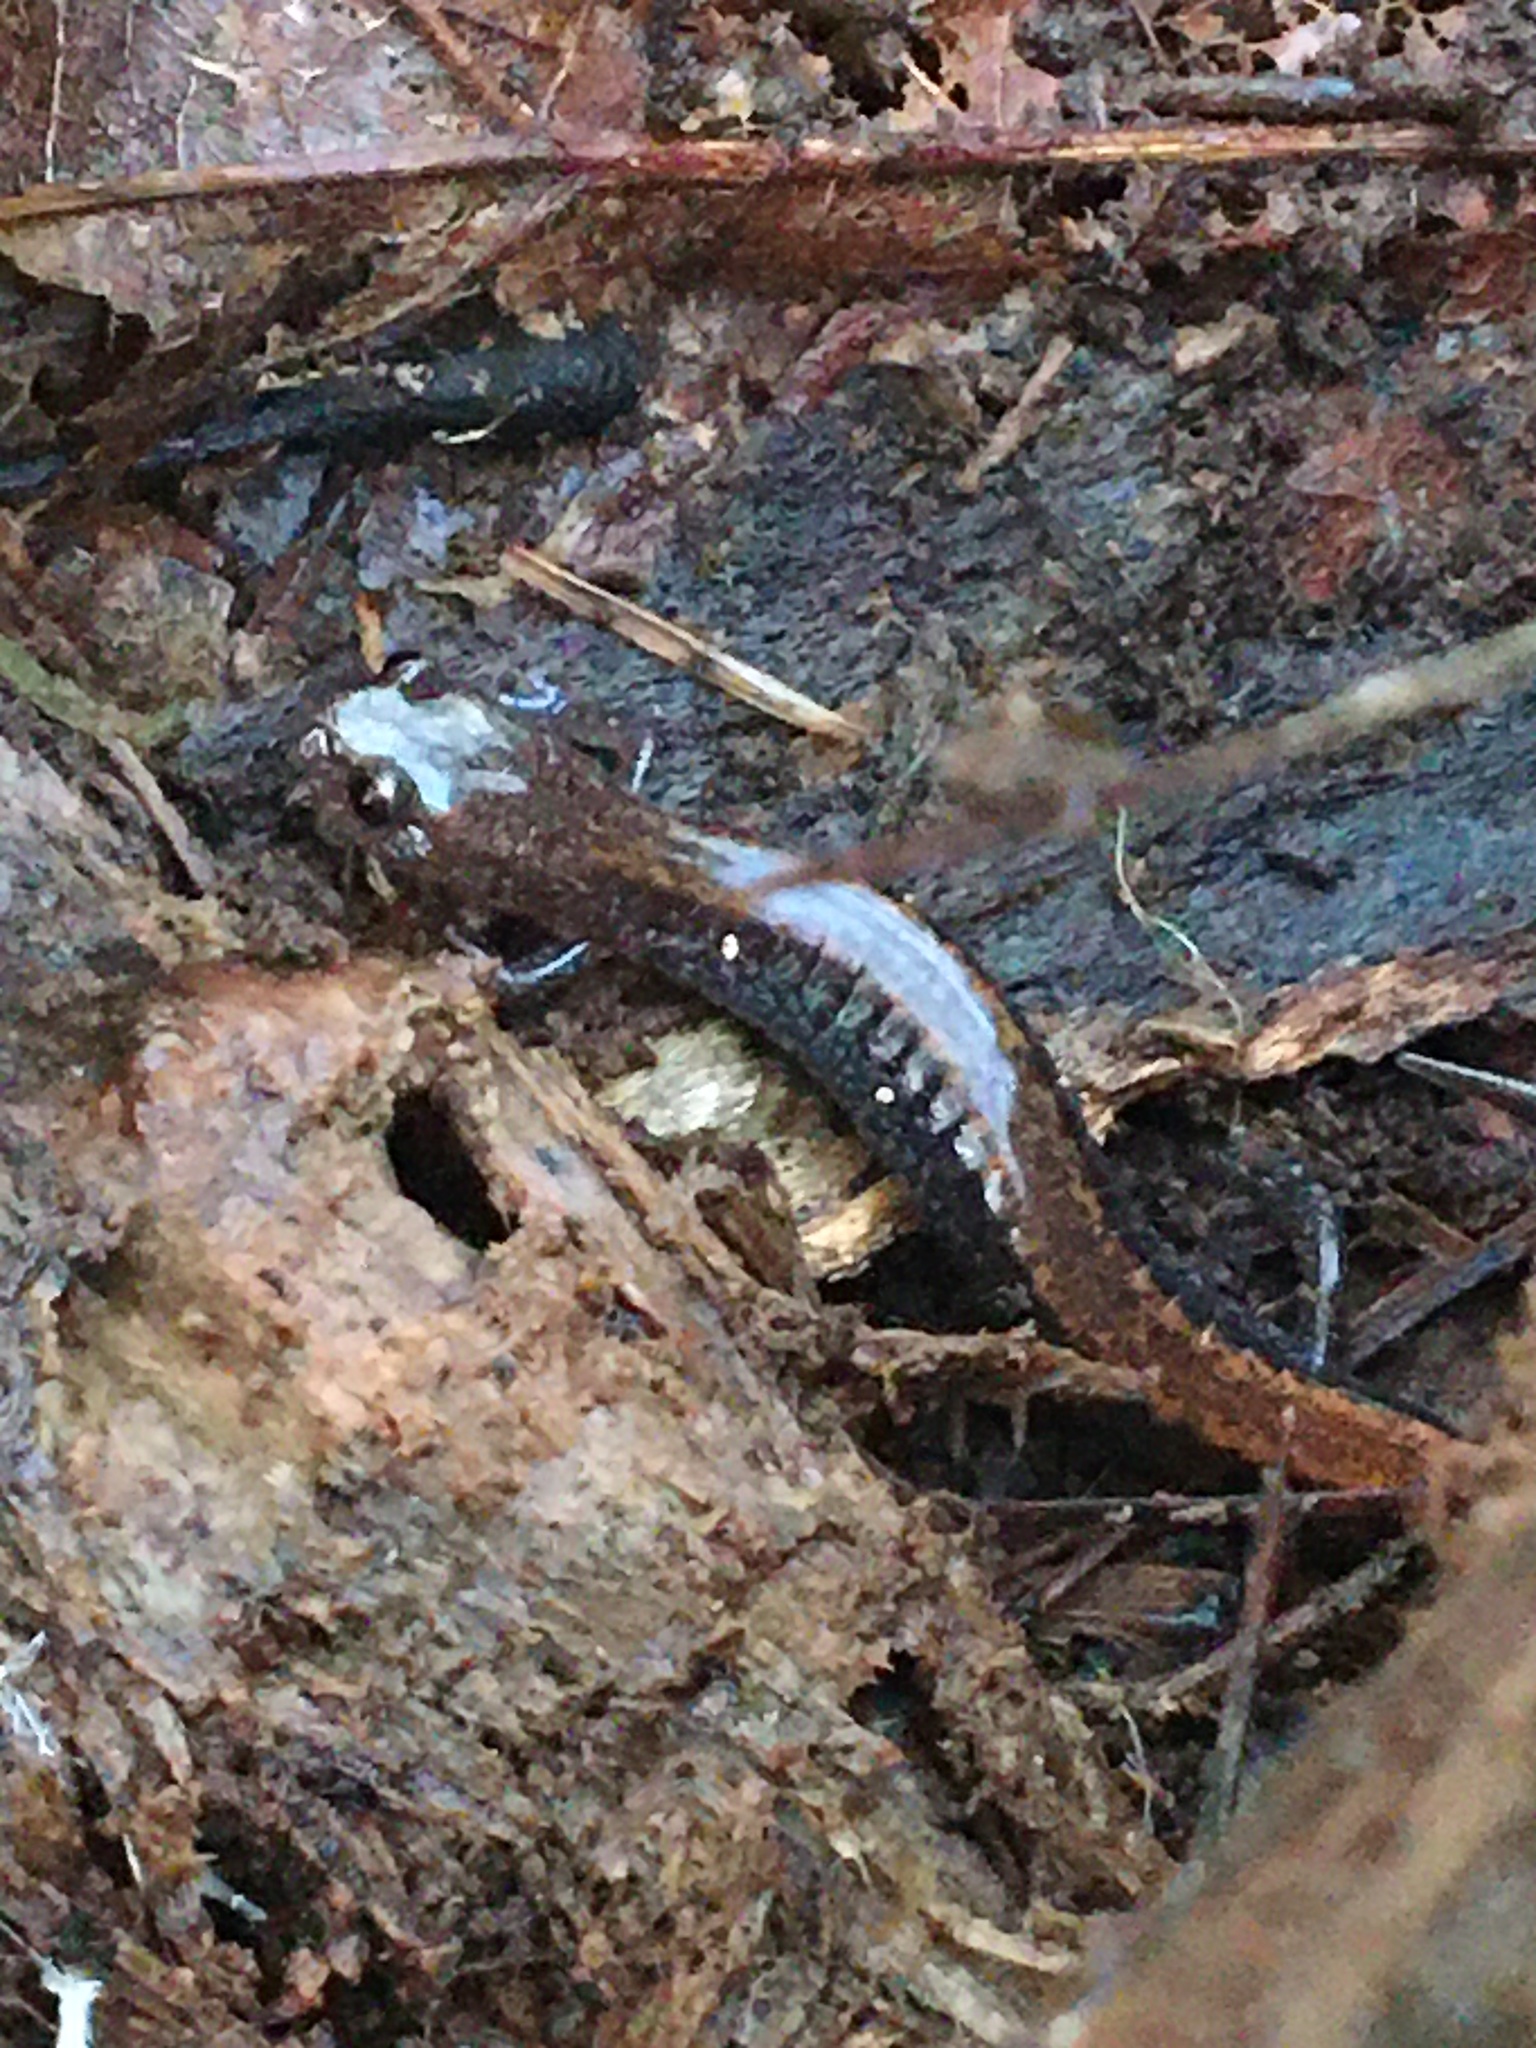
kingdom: Animalia
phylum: Chordata
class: Amphibia
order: Caudata
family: Plethodontidae
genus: Plethodon
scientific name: Plethodon cinereus
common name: Redback salamander
